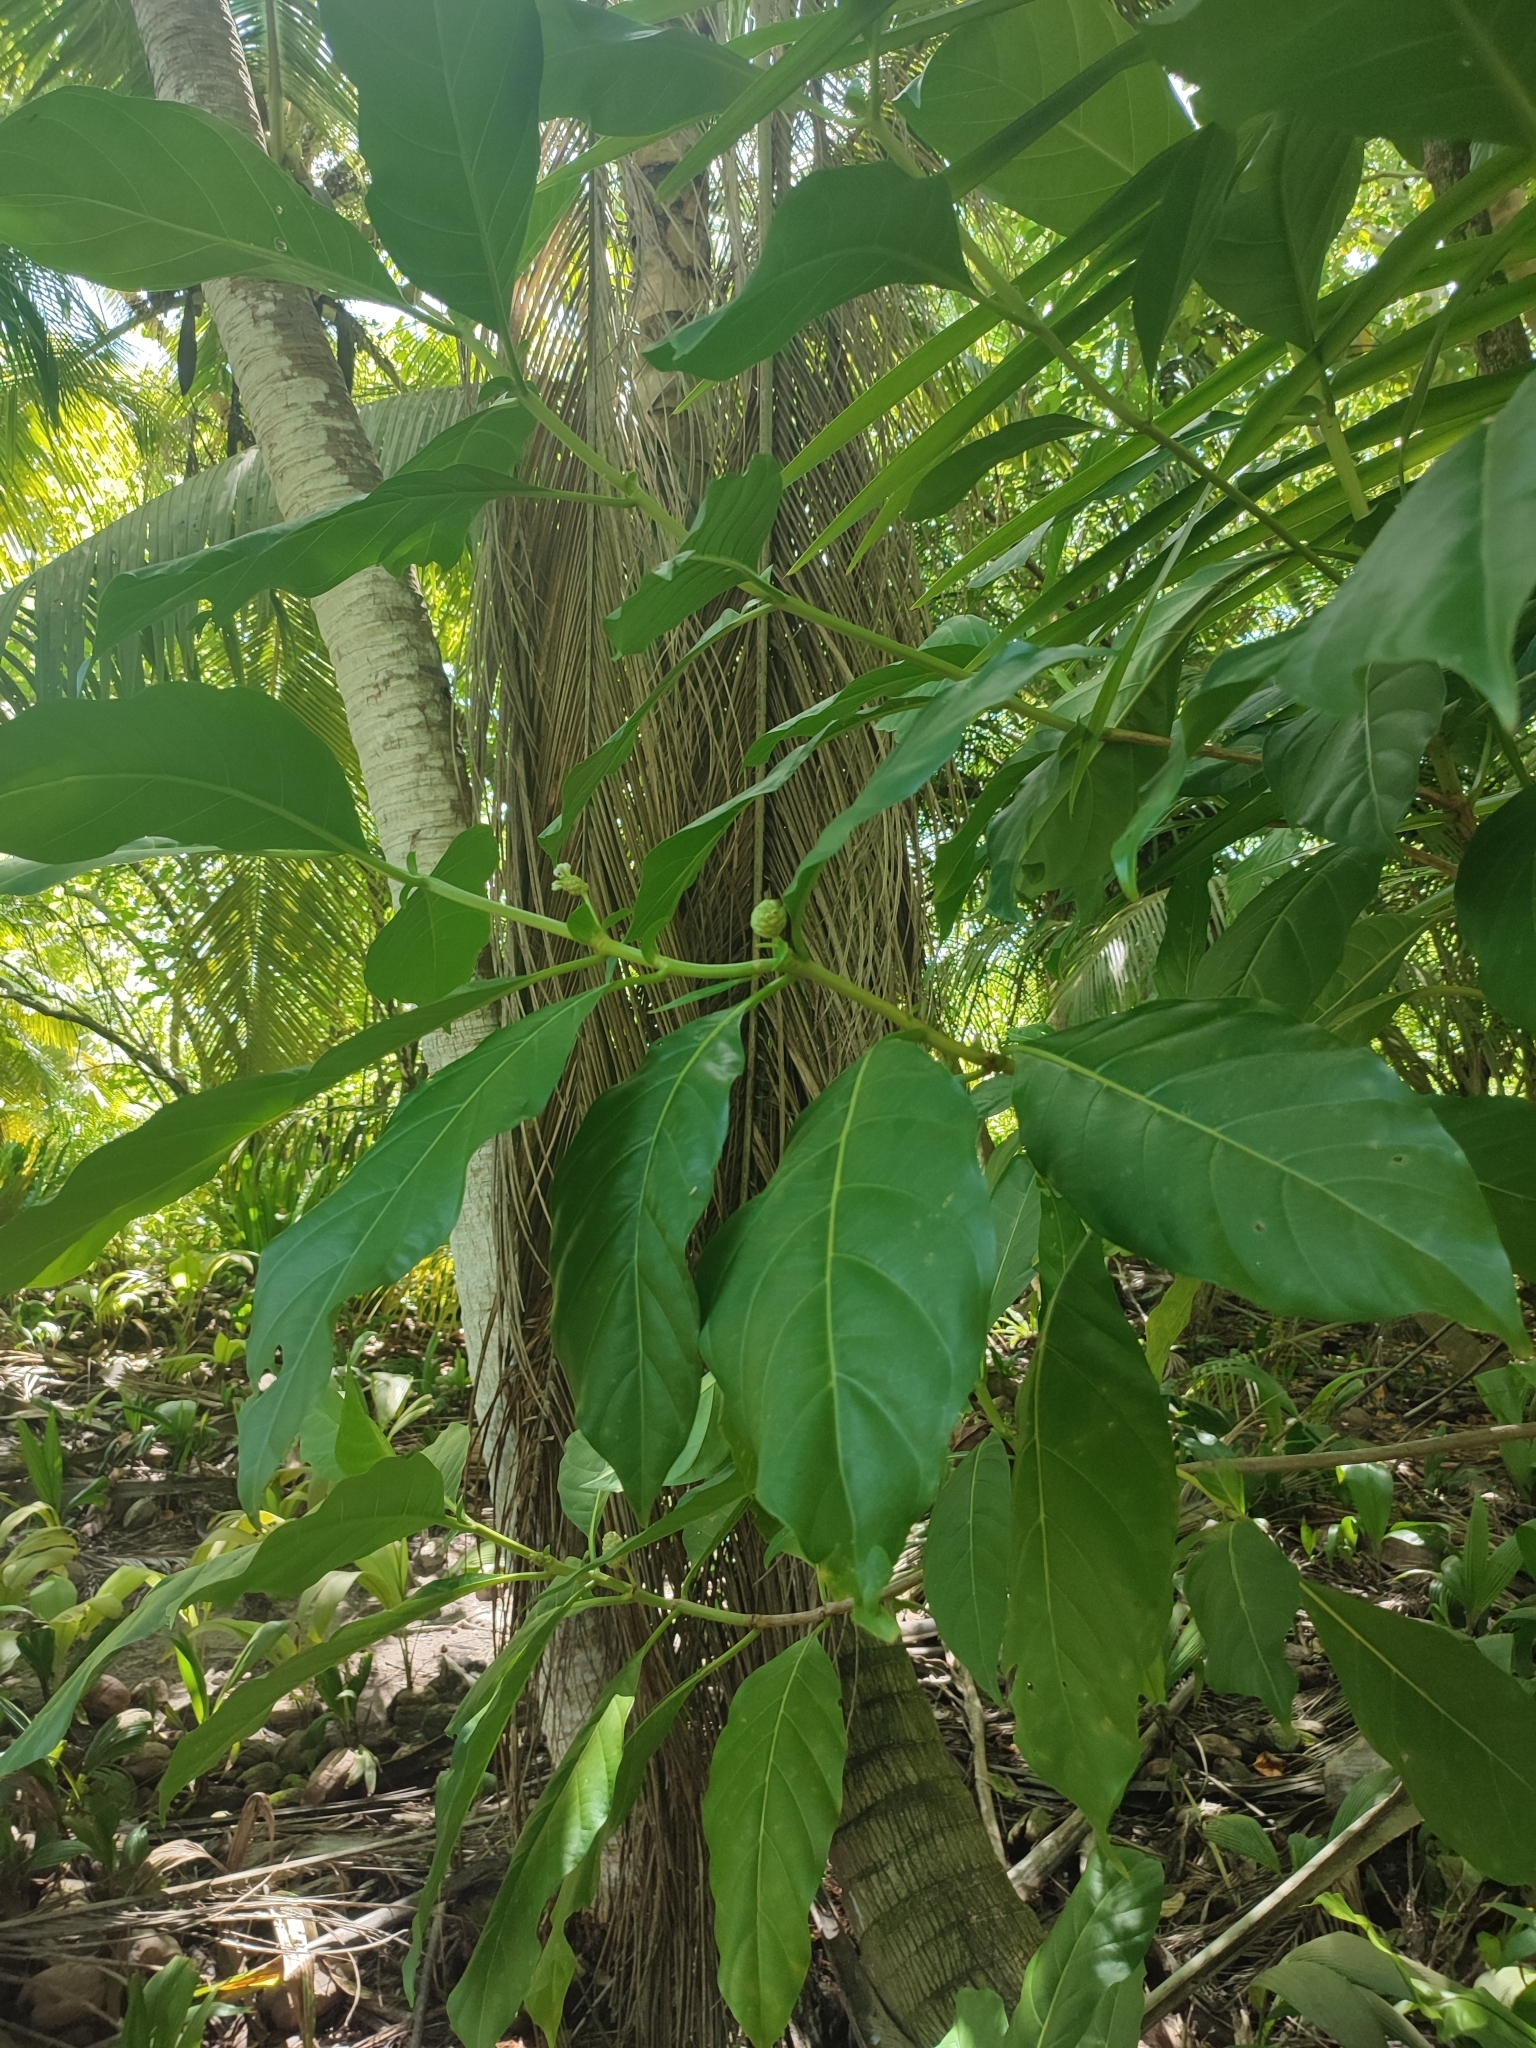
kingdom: Plantae
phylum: Tracheophyta
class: Magnoliopsida
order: Gentianales
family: Rubiaceae
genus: Morinda
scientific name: Morinda citrifolia
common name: Indian-mulberry
